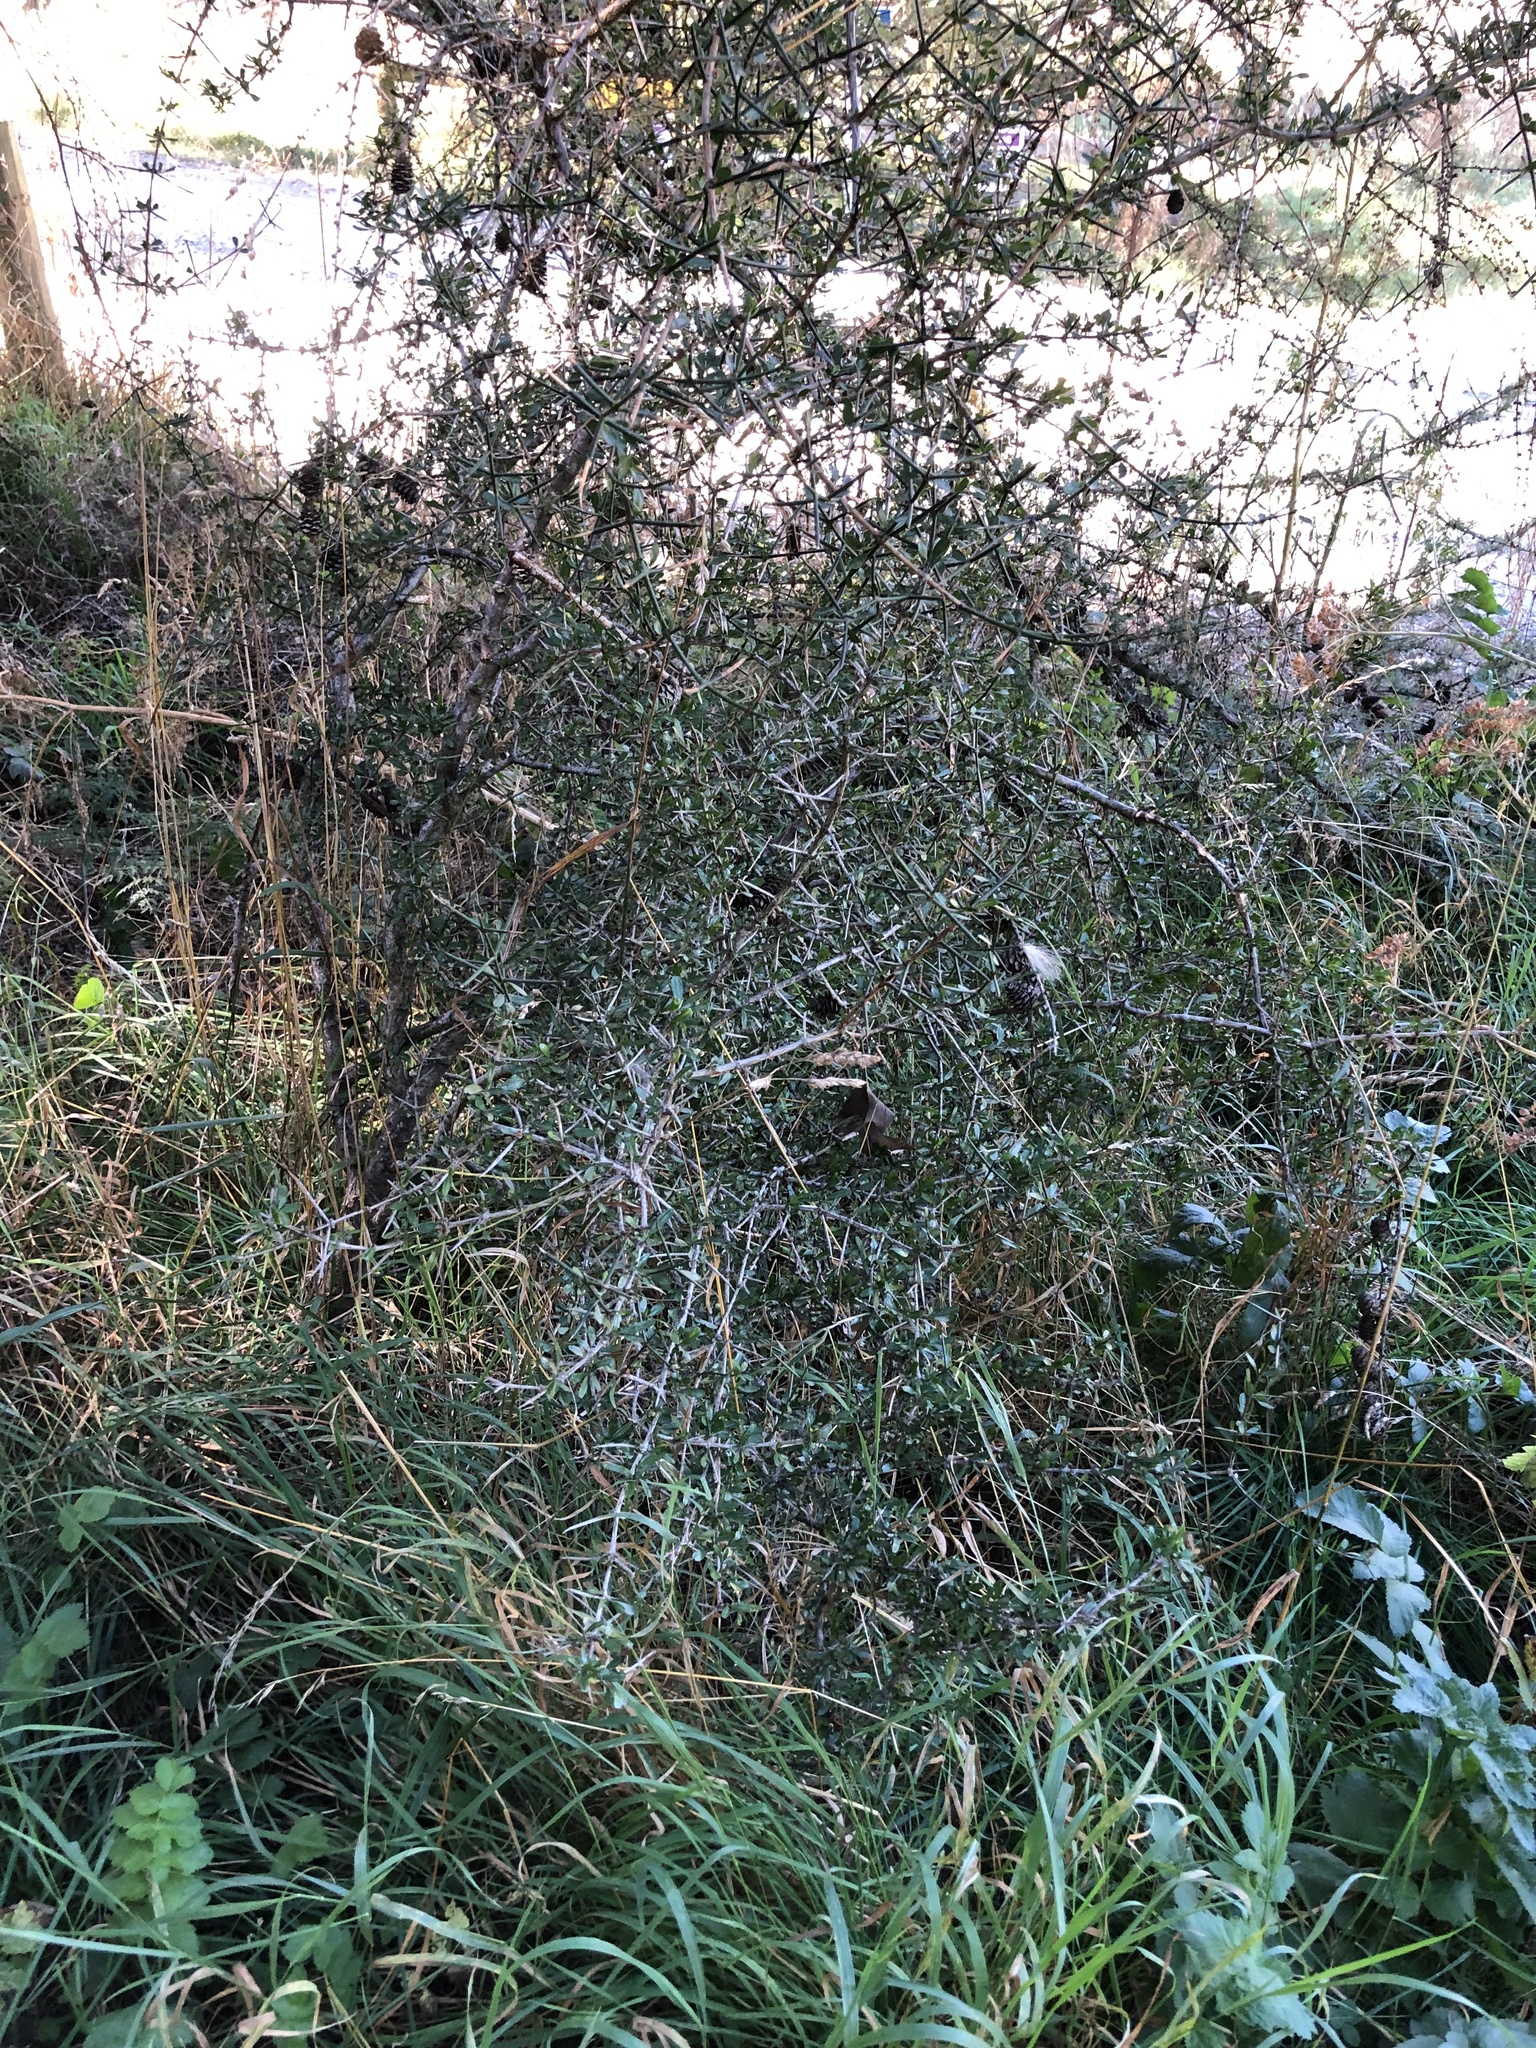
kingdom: Plantae
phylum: Tracheophyta
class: Magnoliopsida
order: Rosales
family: Rhamnaceae
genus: Discaria
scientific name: Discaria toumatou
